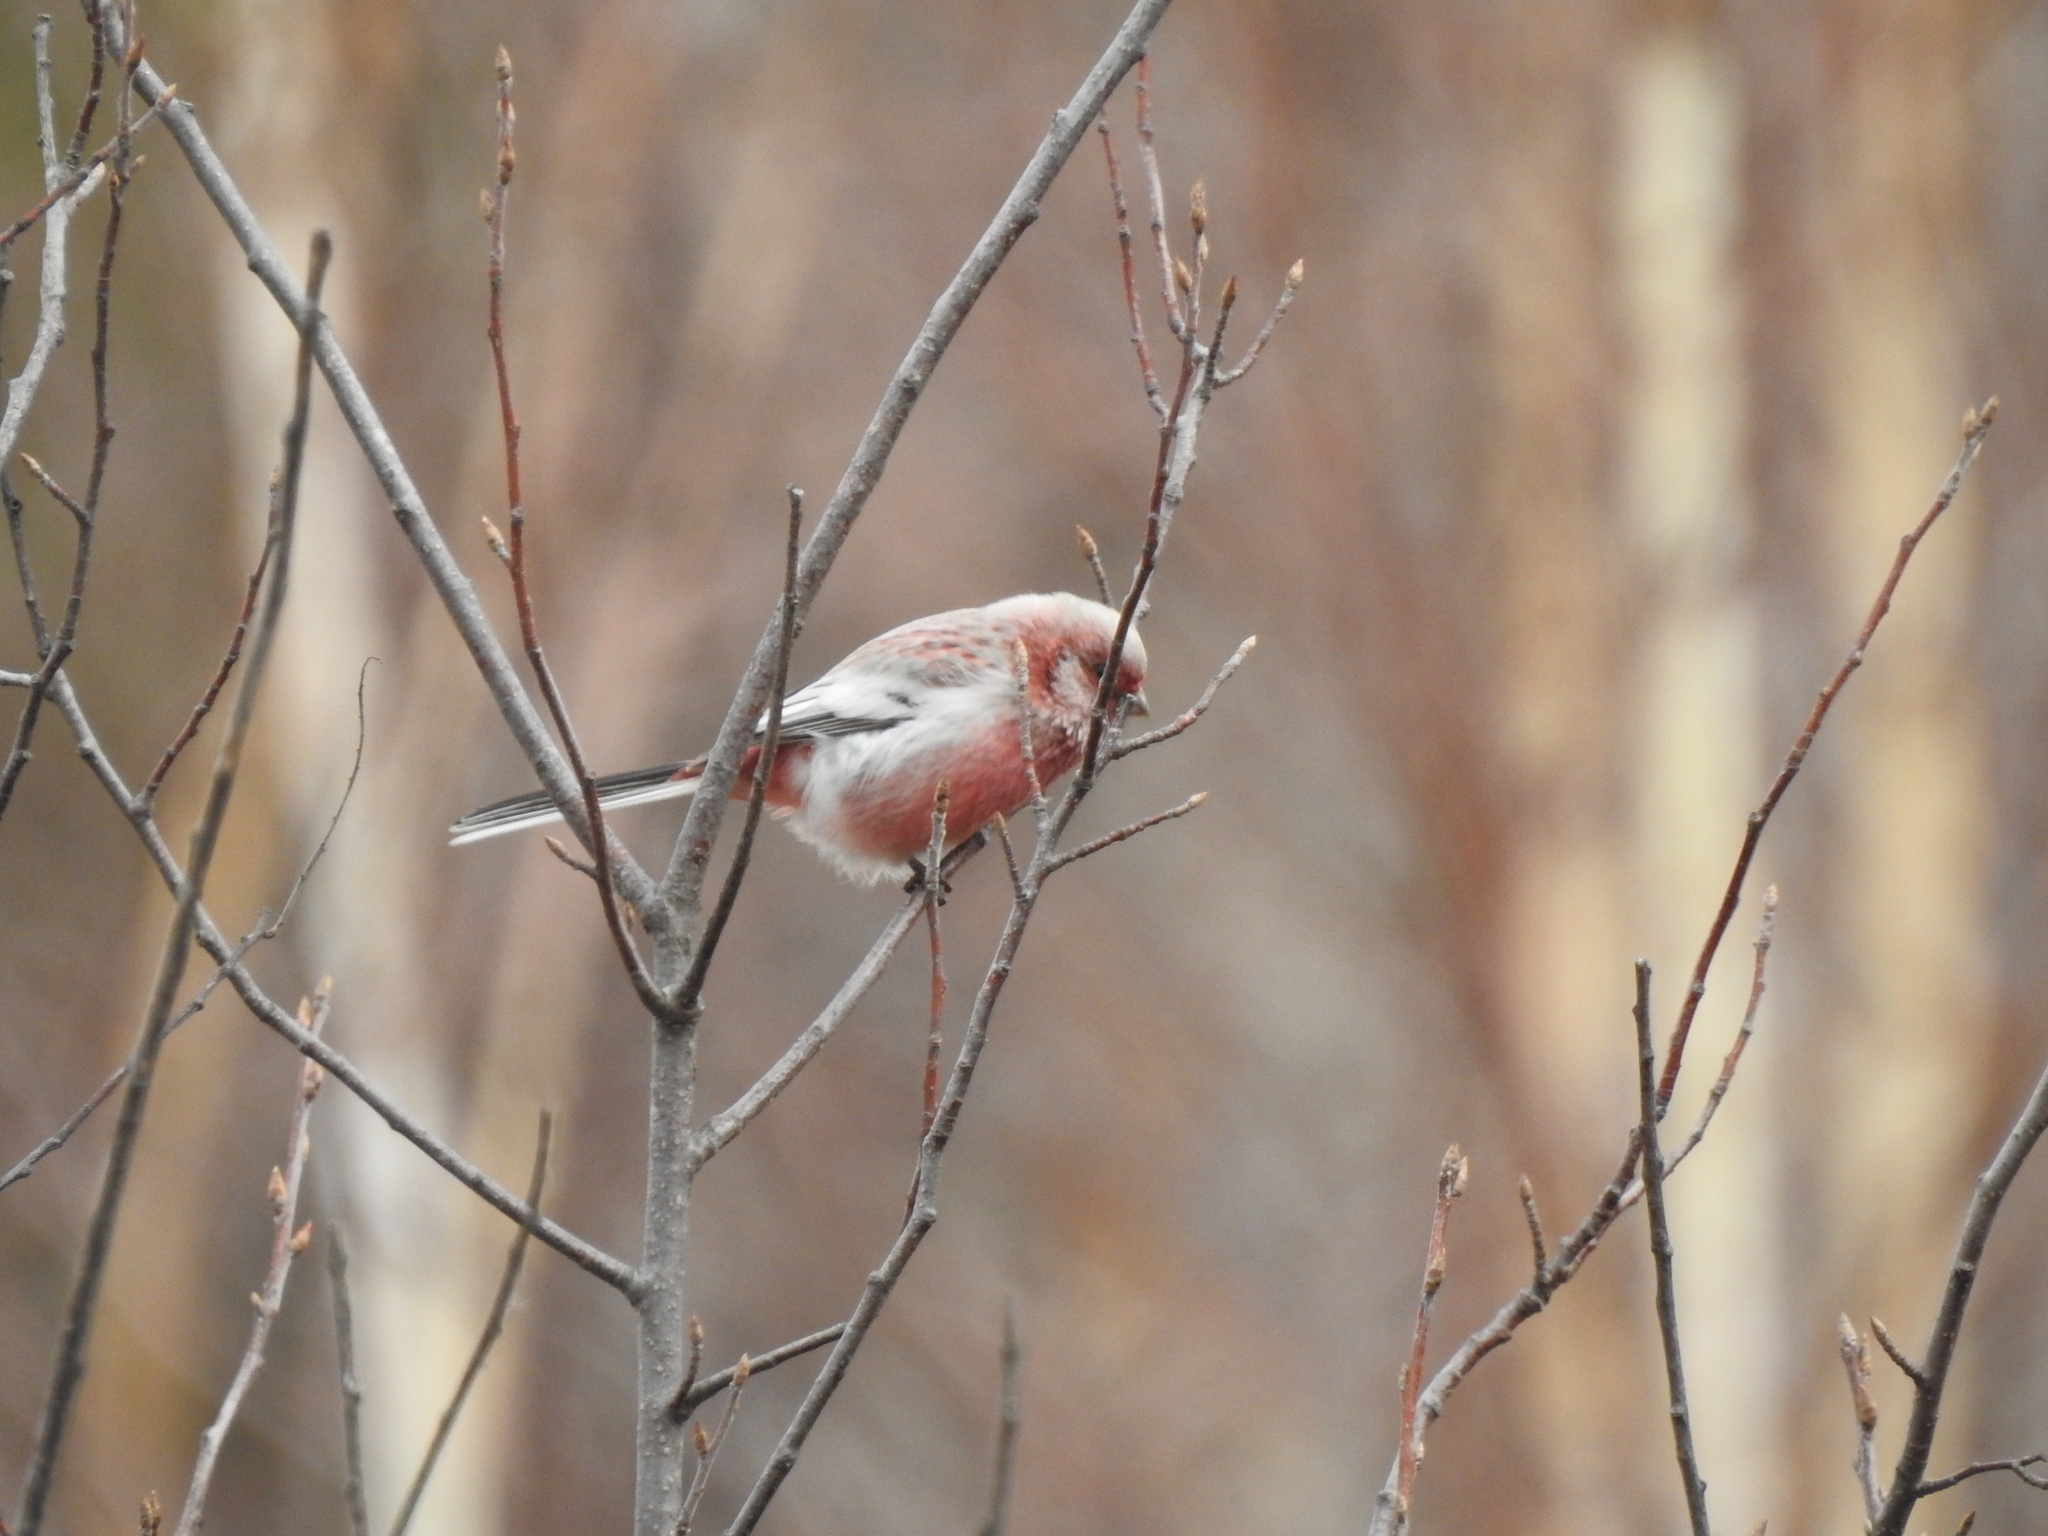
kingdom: Animalia
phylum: Chordata
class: Aves
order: Passeriformes
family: Fringillidae
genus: Carpodacus
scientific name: Carpodacus sibiricus
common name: Long-tailed rosefinch
